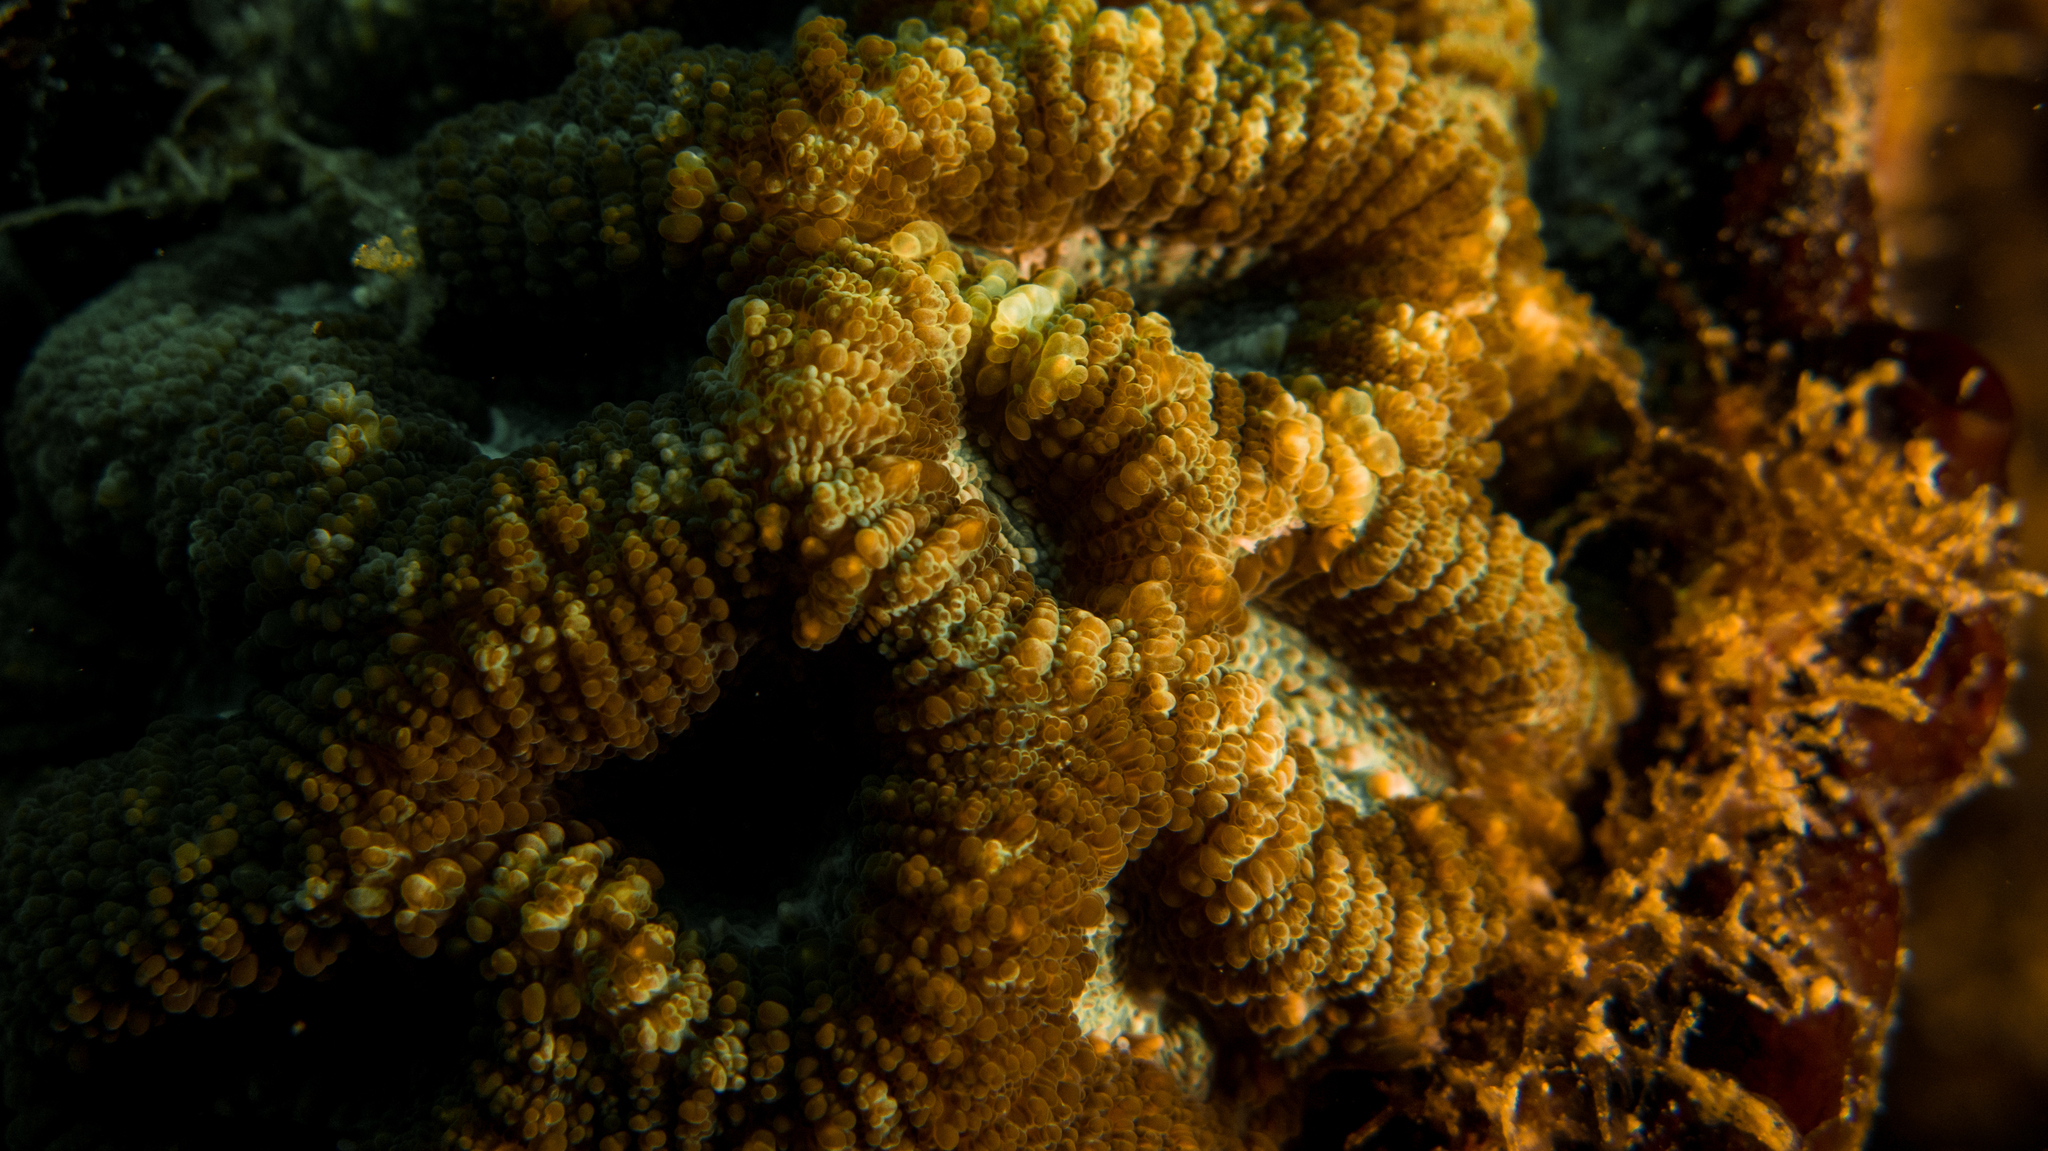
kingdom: Animalia
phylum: Cnidaria
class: Anthozoa
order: Scleractinia
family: Faviidae
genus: Mussismilia
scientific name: Mussismilia hispida
